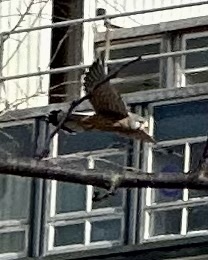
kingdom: Animalia
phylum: Chordata
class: Aves
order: Falconiformes
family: Falconidae
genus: Falco
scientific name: Falco tinnunculus
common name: Common kestrel
